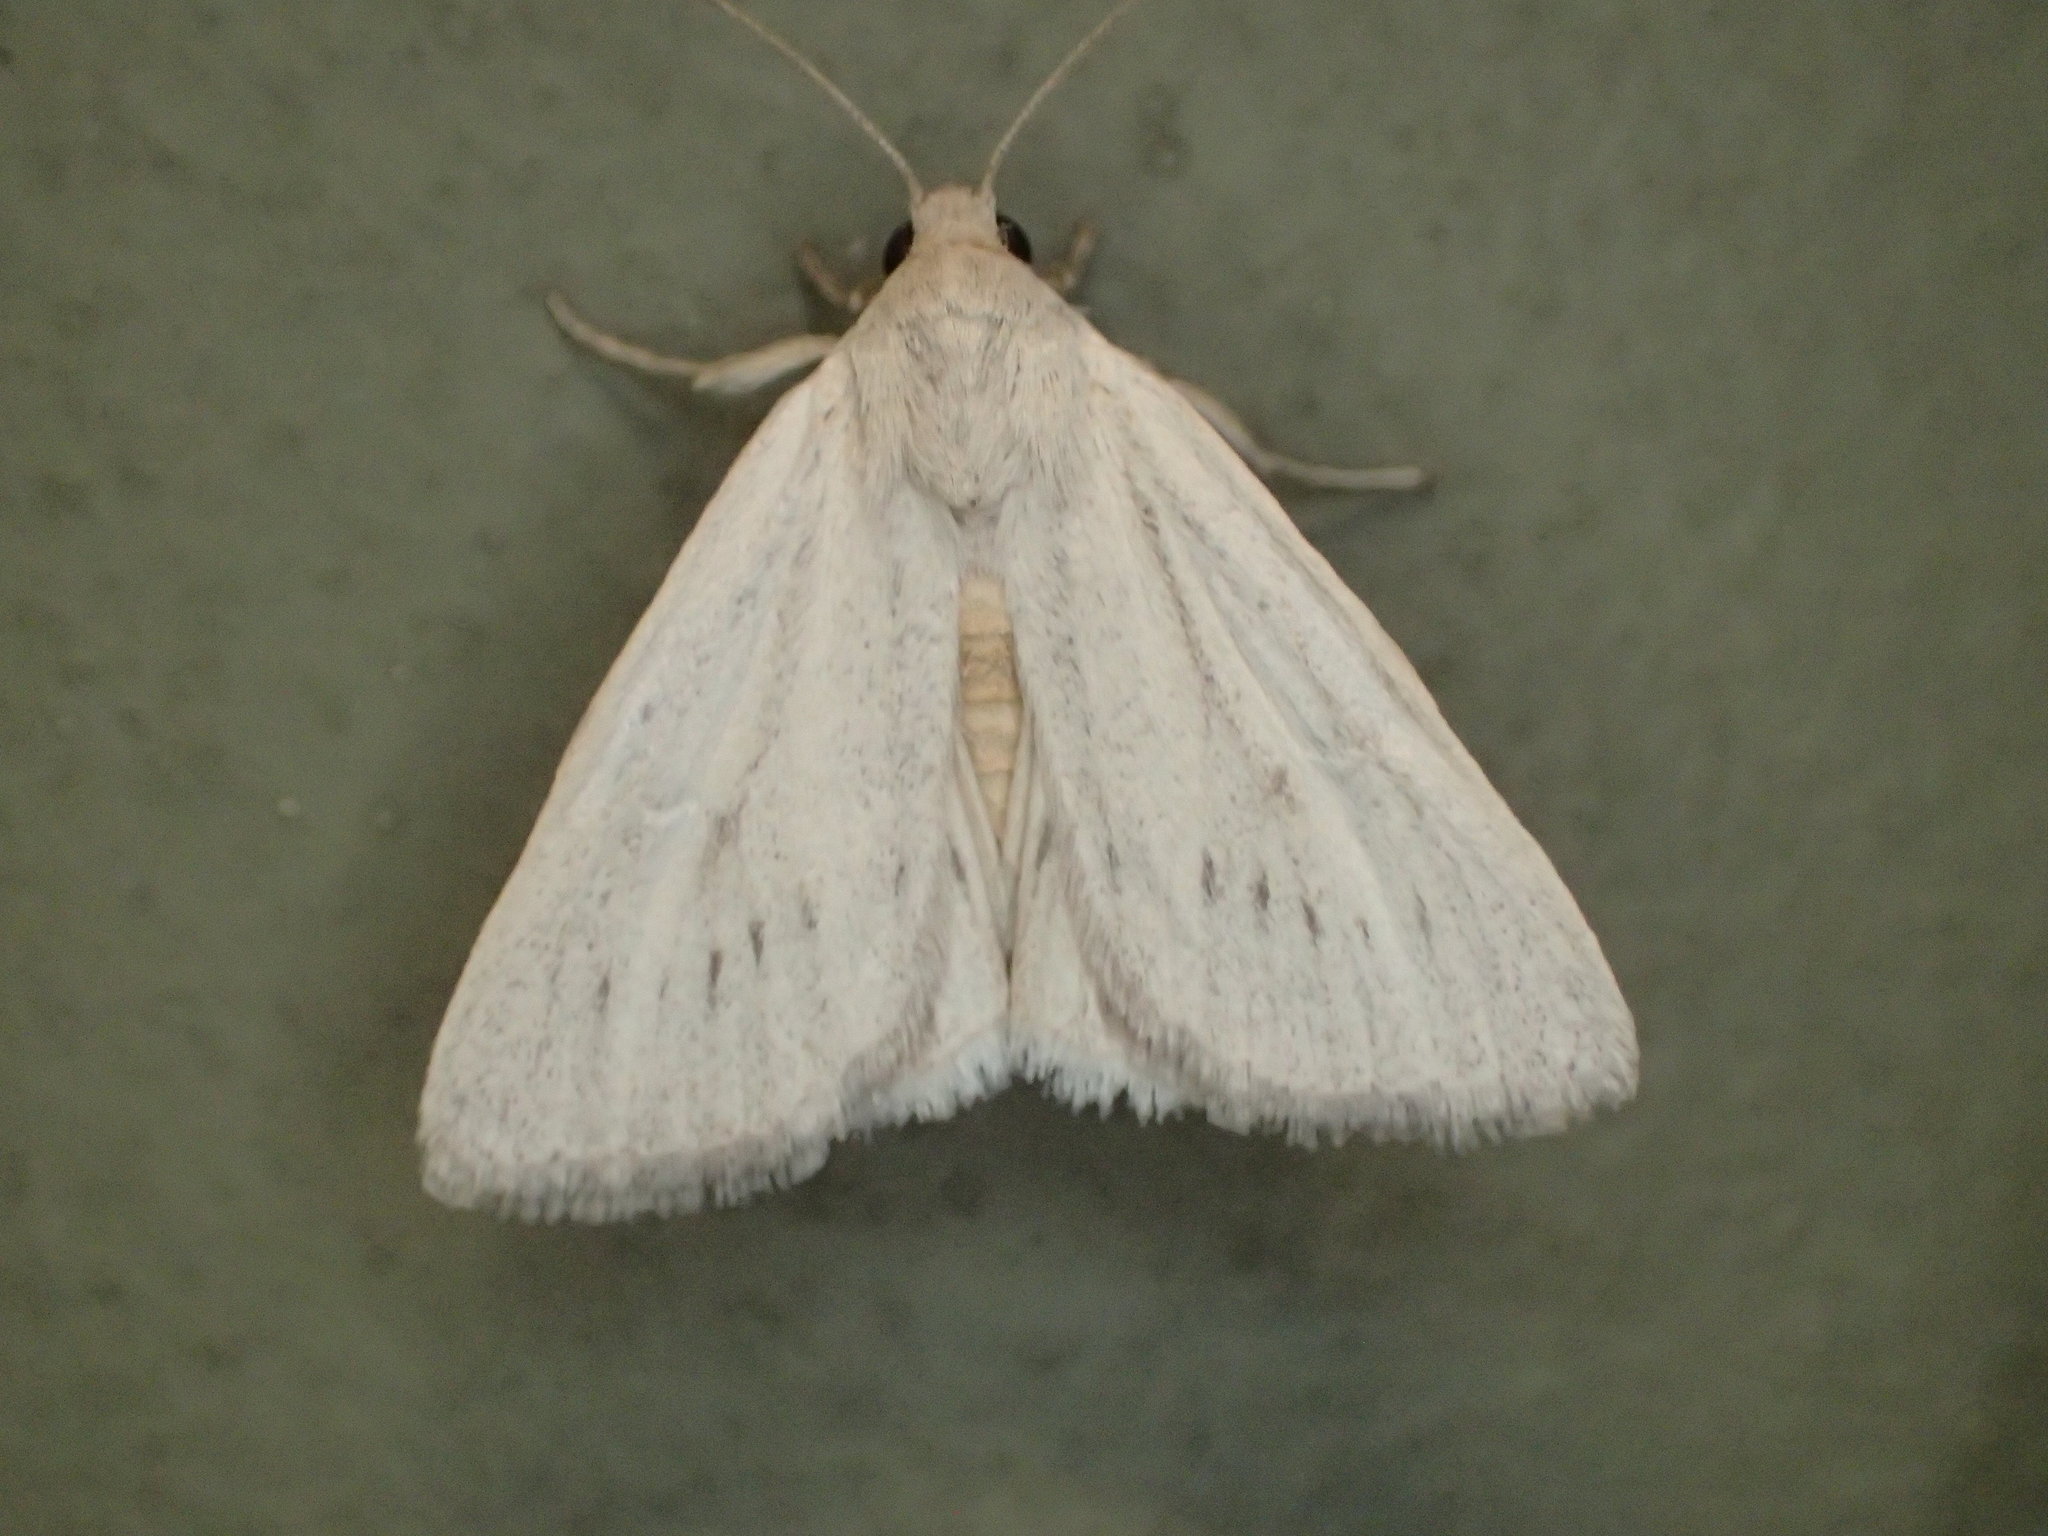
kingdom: Animalia
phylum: Arthropoda
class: Insecta
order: Lepidoptera
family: Noctuidae
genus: Heliocheilus
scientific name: Heliocheilus aleurota
